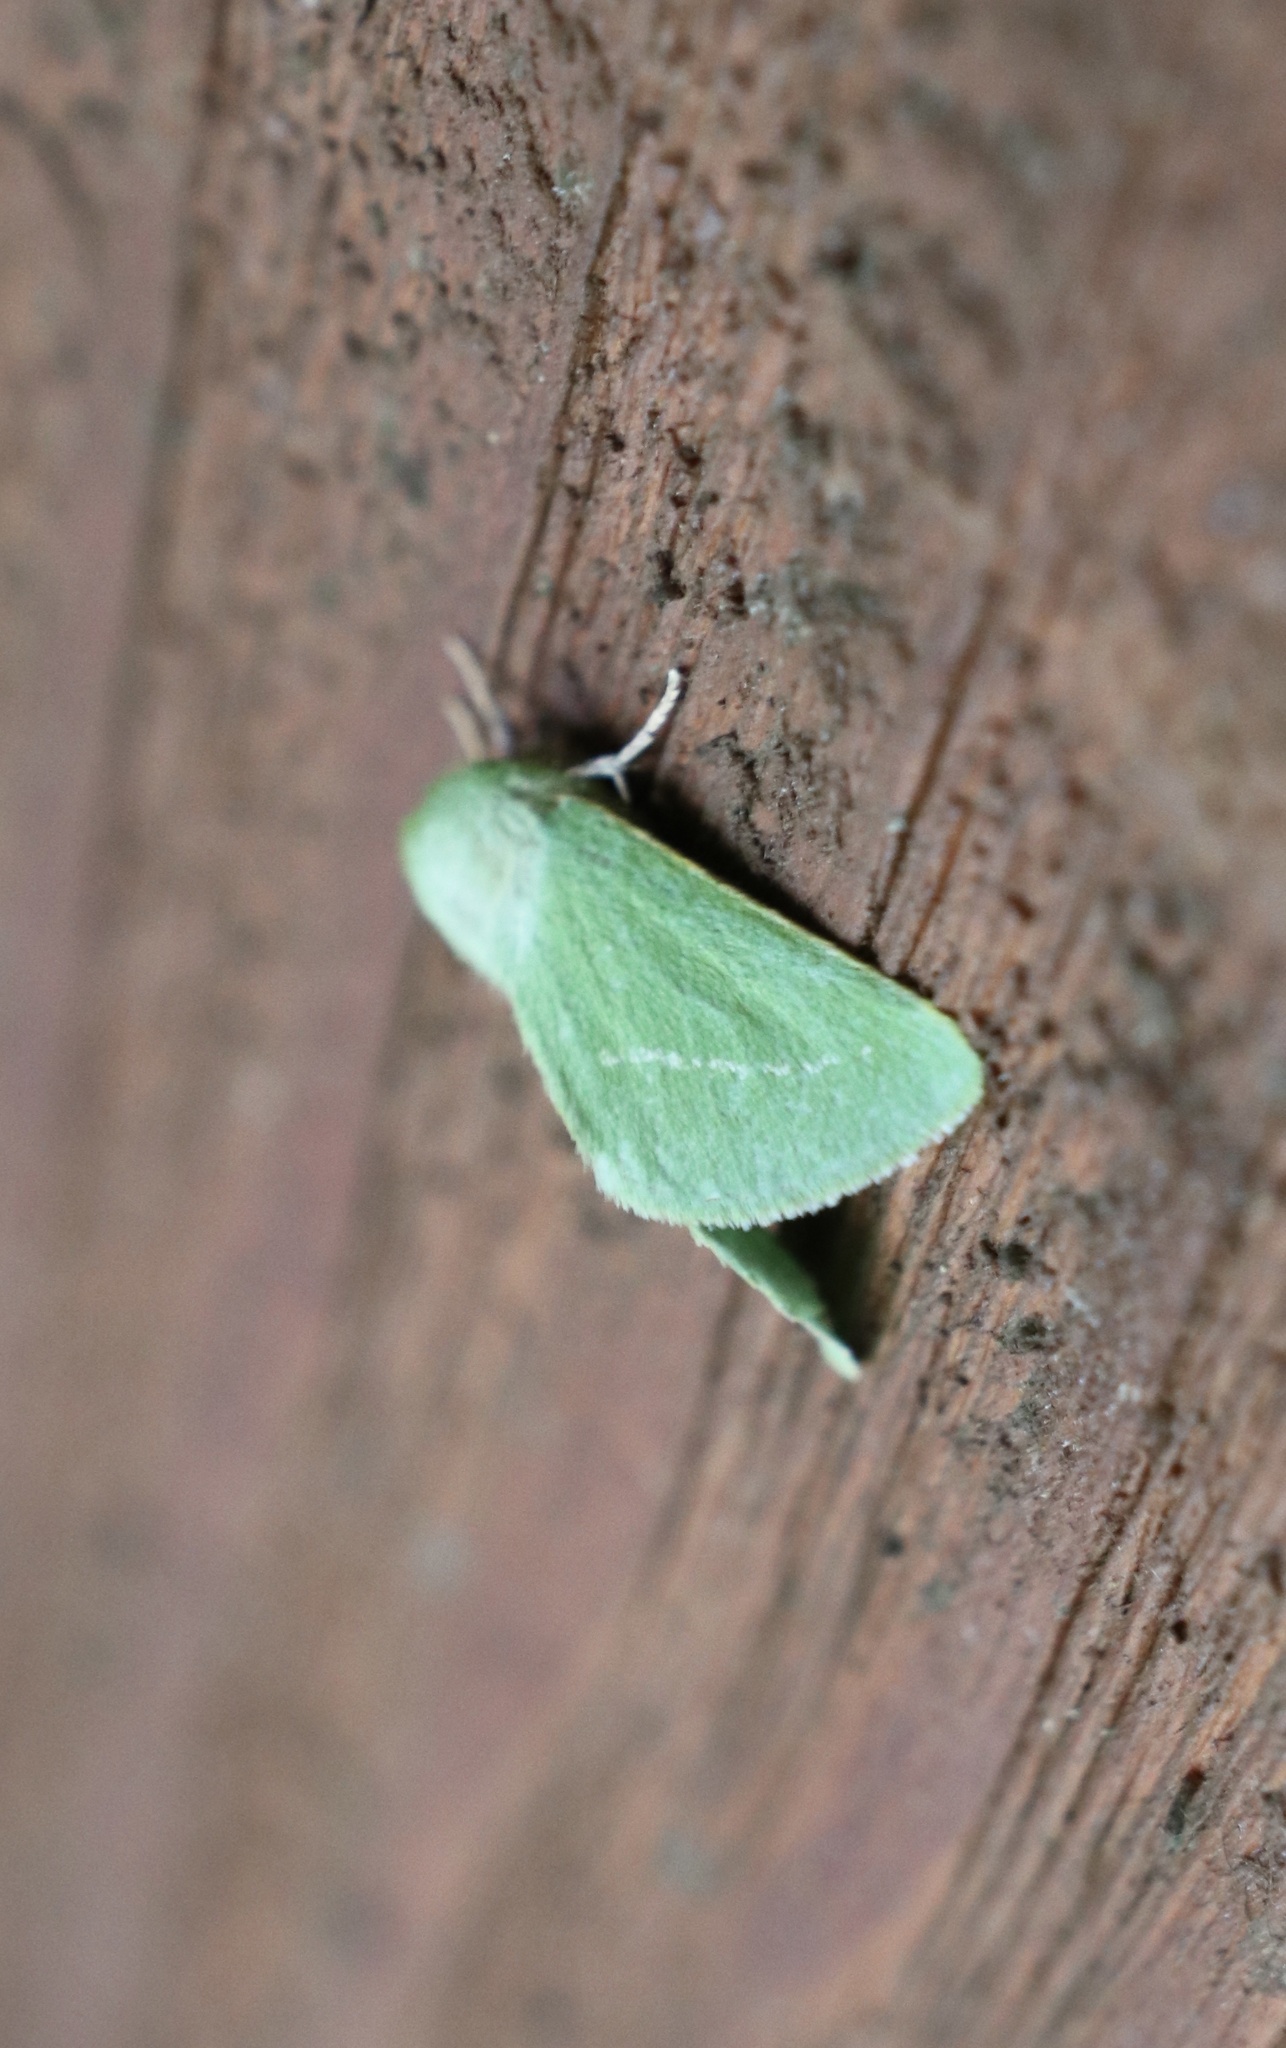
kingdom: Animalia
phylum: Arthropoda
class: Insecta
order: Lepidoptera
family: Erebidae
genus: Jochroa
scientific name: Jochroa chlorogastra
